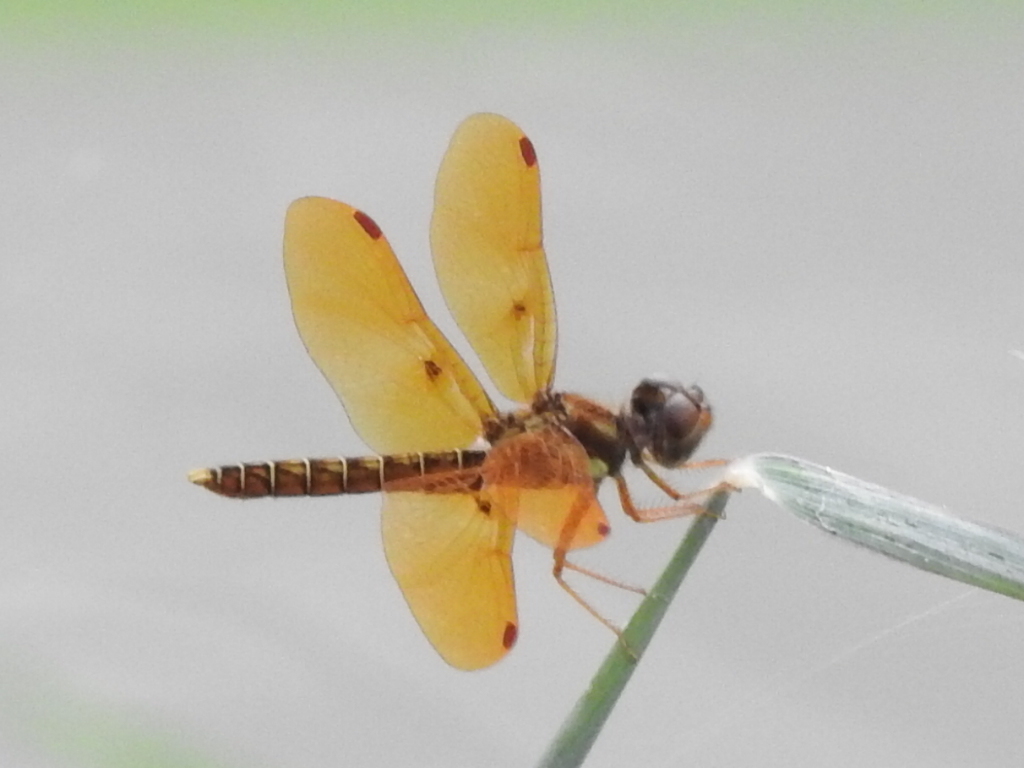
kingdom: Animalia
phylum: Arthropoda
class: Insecta
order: Odonata
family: Libellulidae
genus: Perithemis
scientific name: Perithemis tenera
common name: Eastern amberwing
